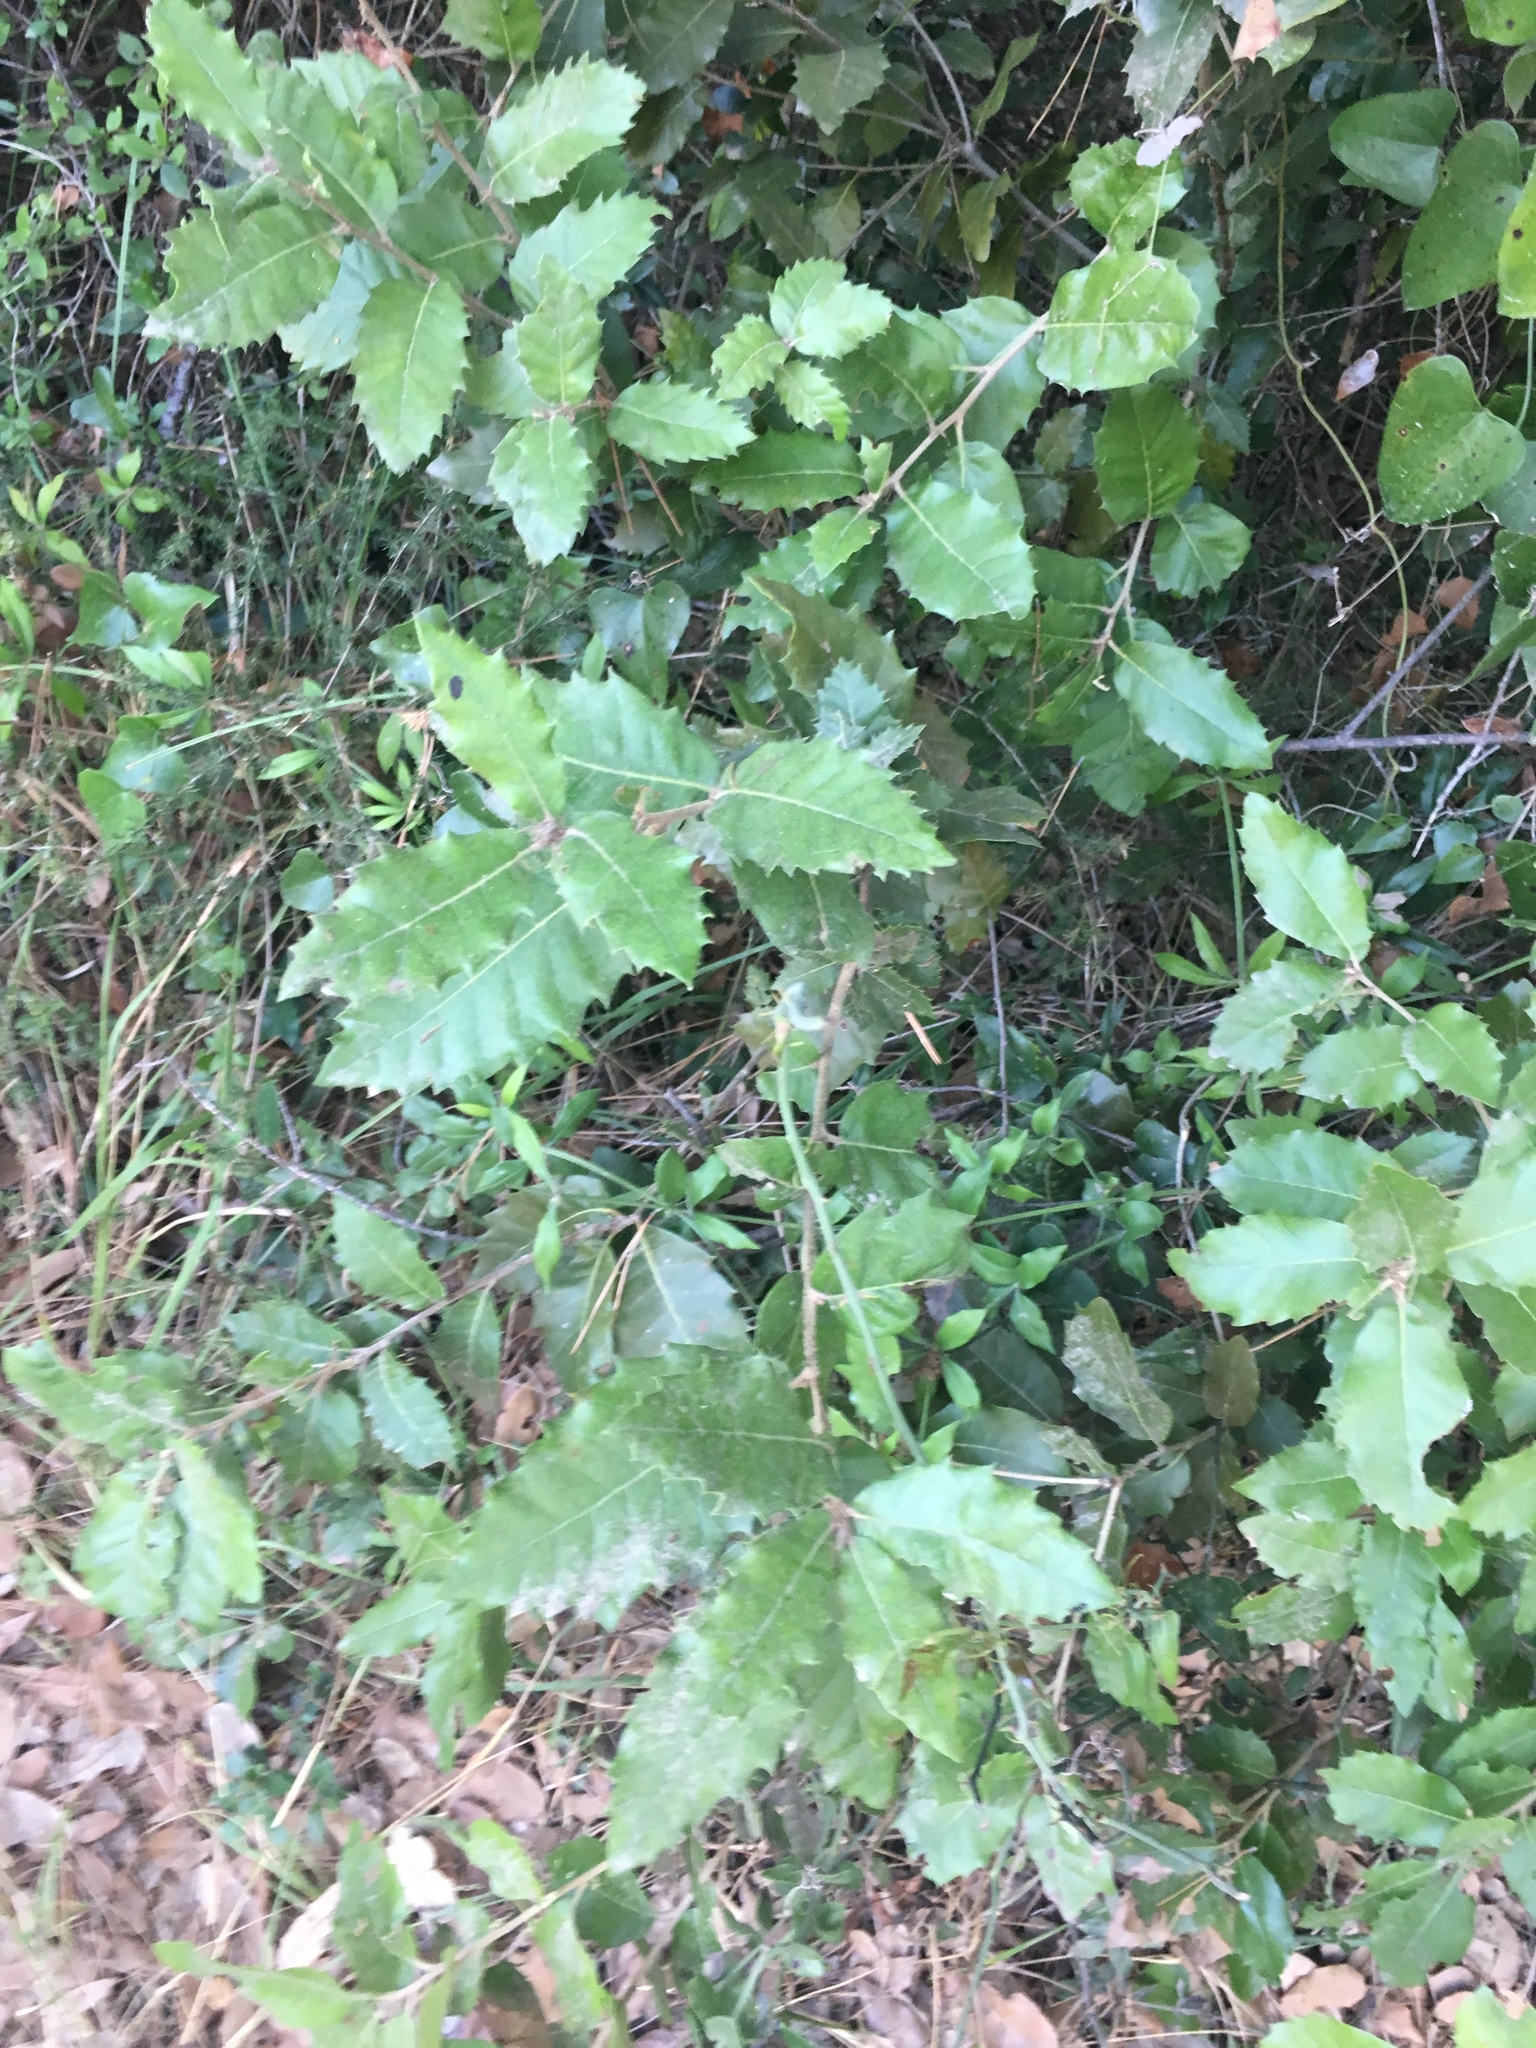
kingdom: Plantae
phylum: Tracheophyta
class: Magnoliopsida
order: Fagales
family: Fagaceae
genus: Quercus
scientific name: Quercus ilex
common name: Evergreen oak
